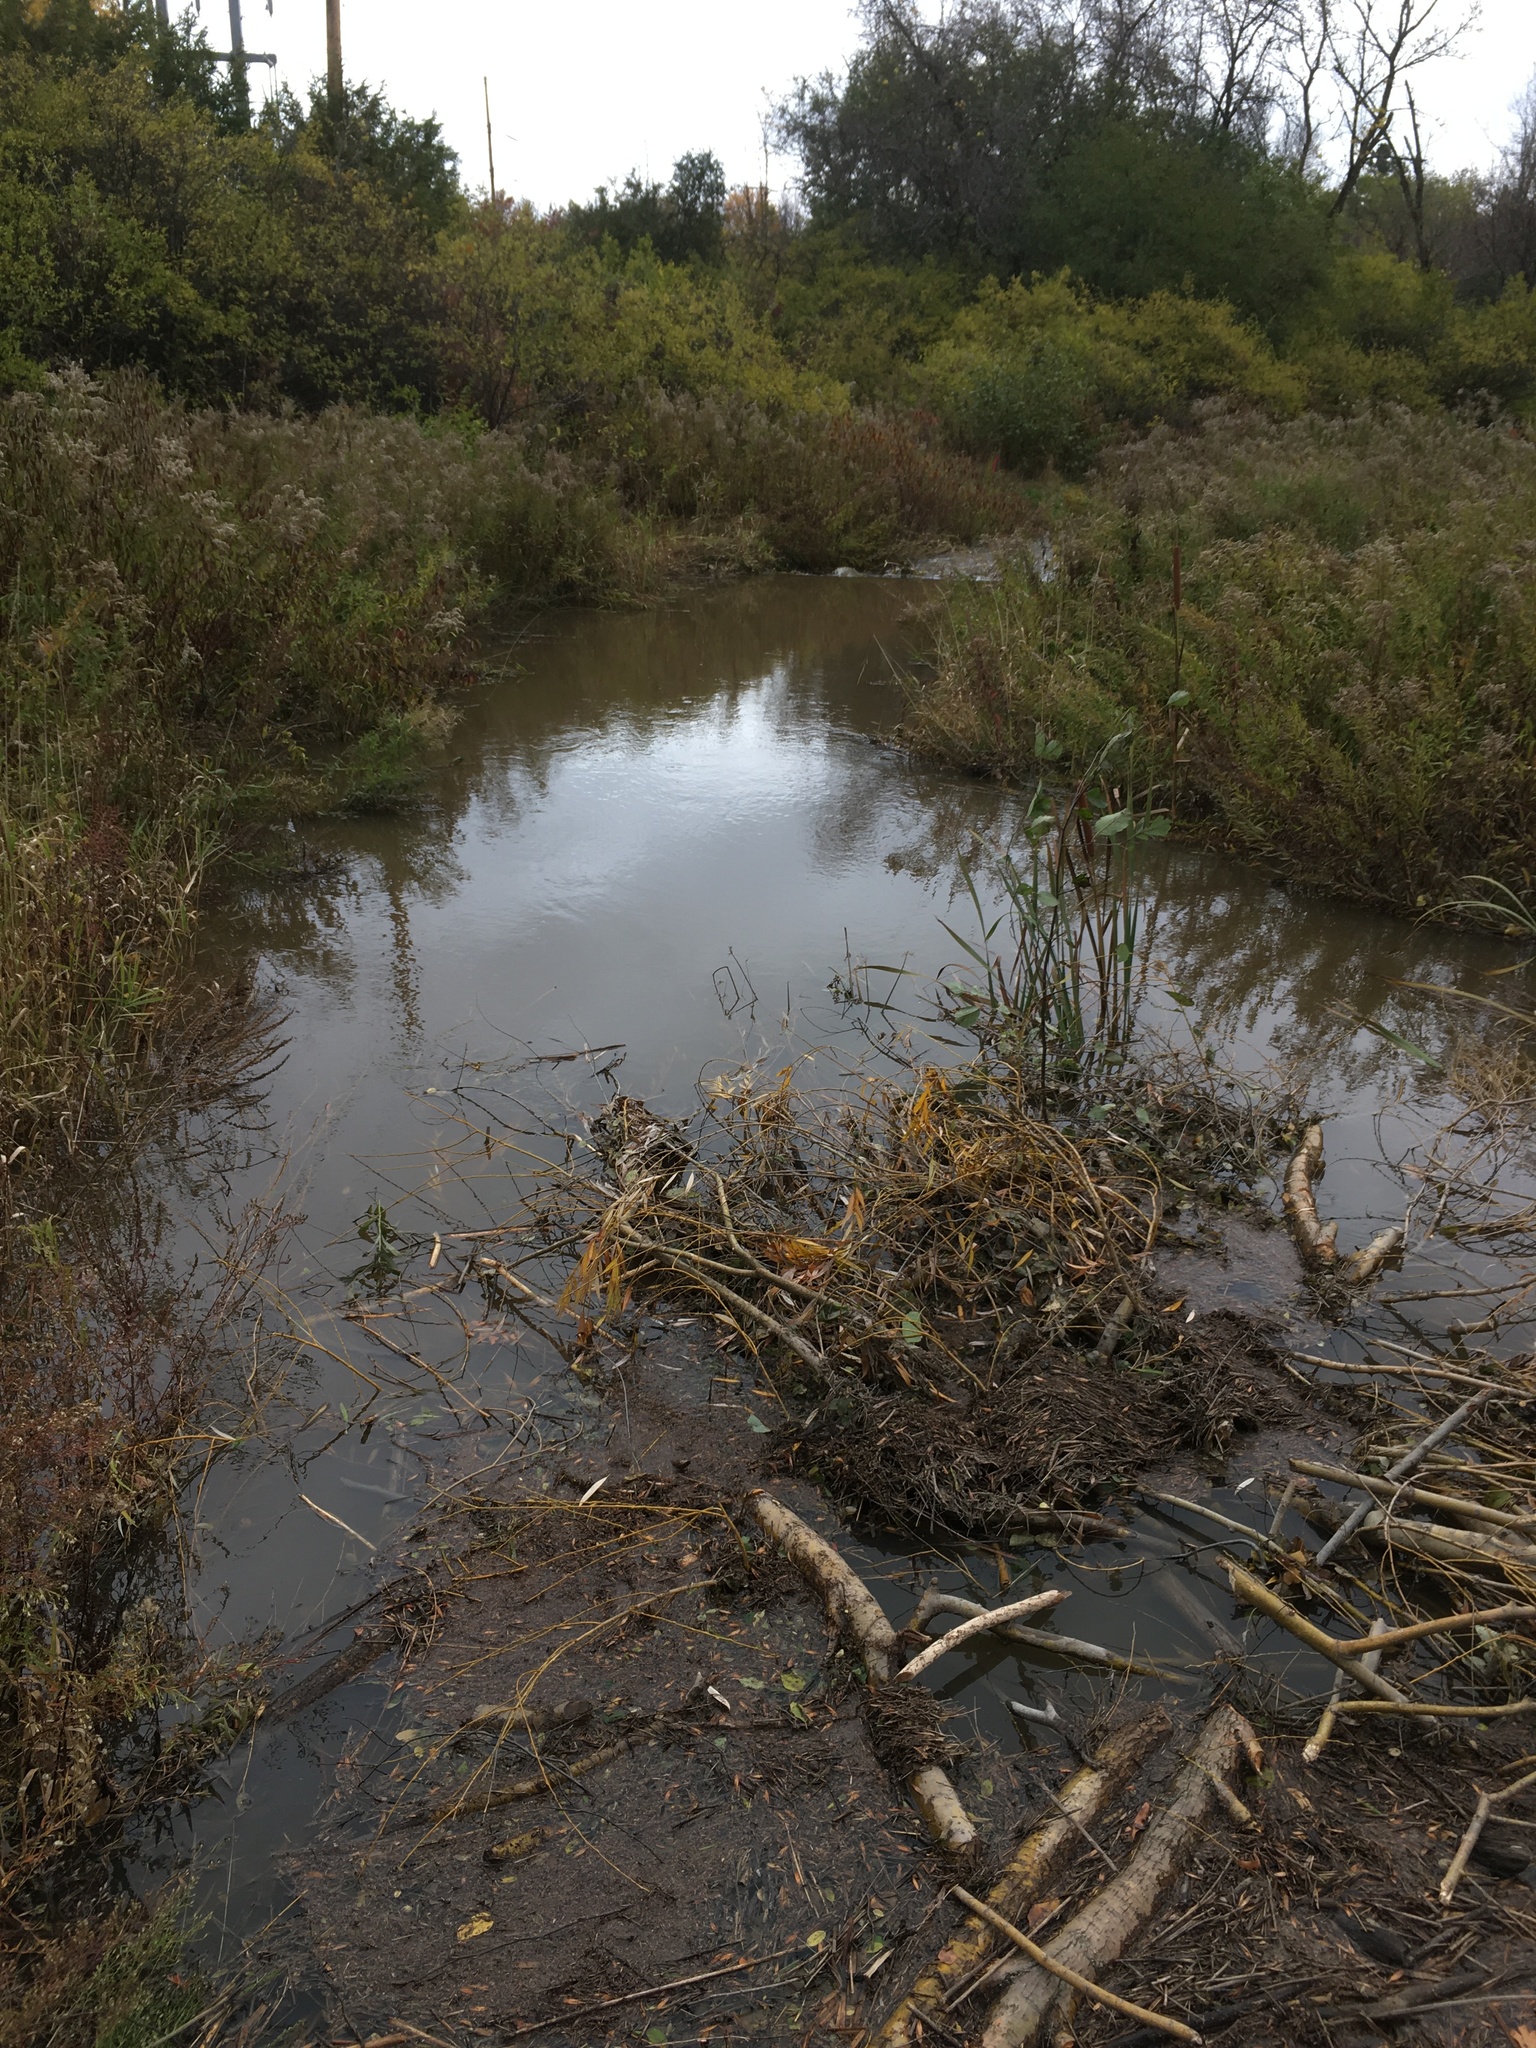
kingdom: Animalia
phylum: Chordata
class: Mammalia
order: Rodentia
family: Castoridae
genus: Castor
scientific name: Castor canadensis
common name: American beaver
